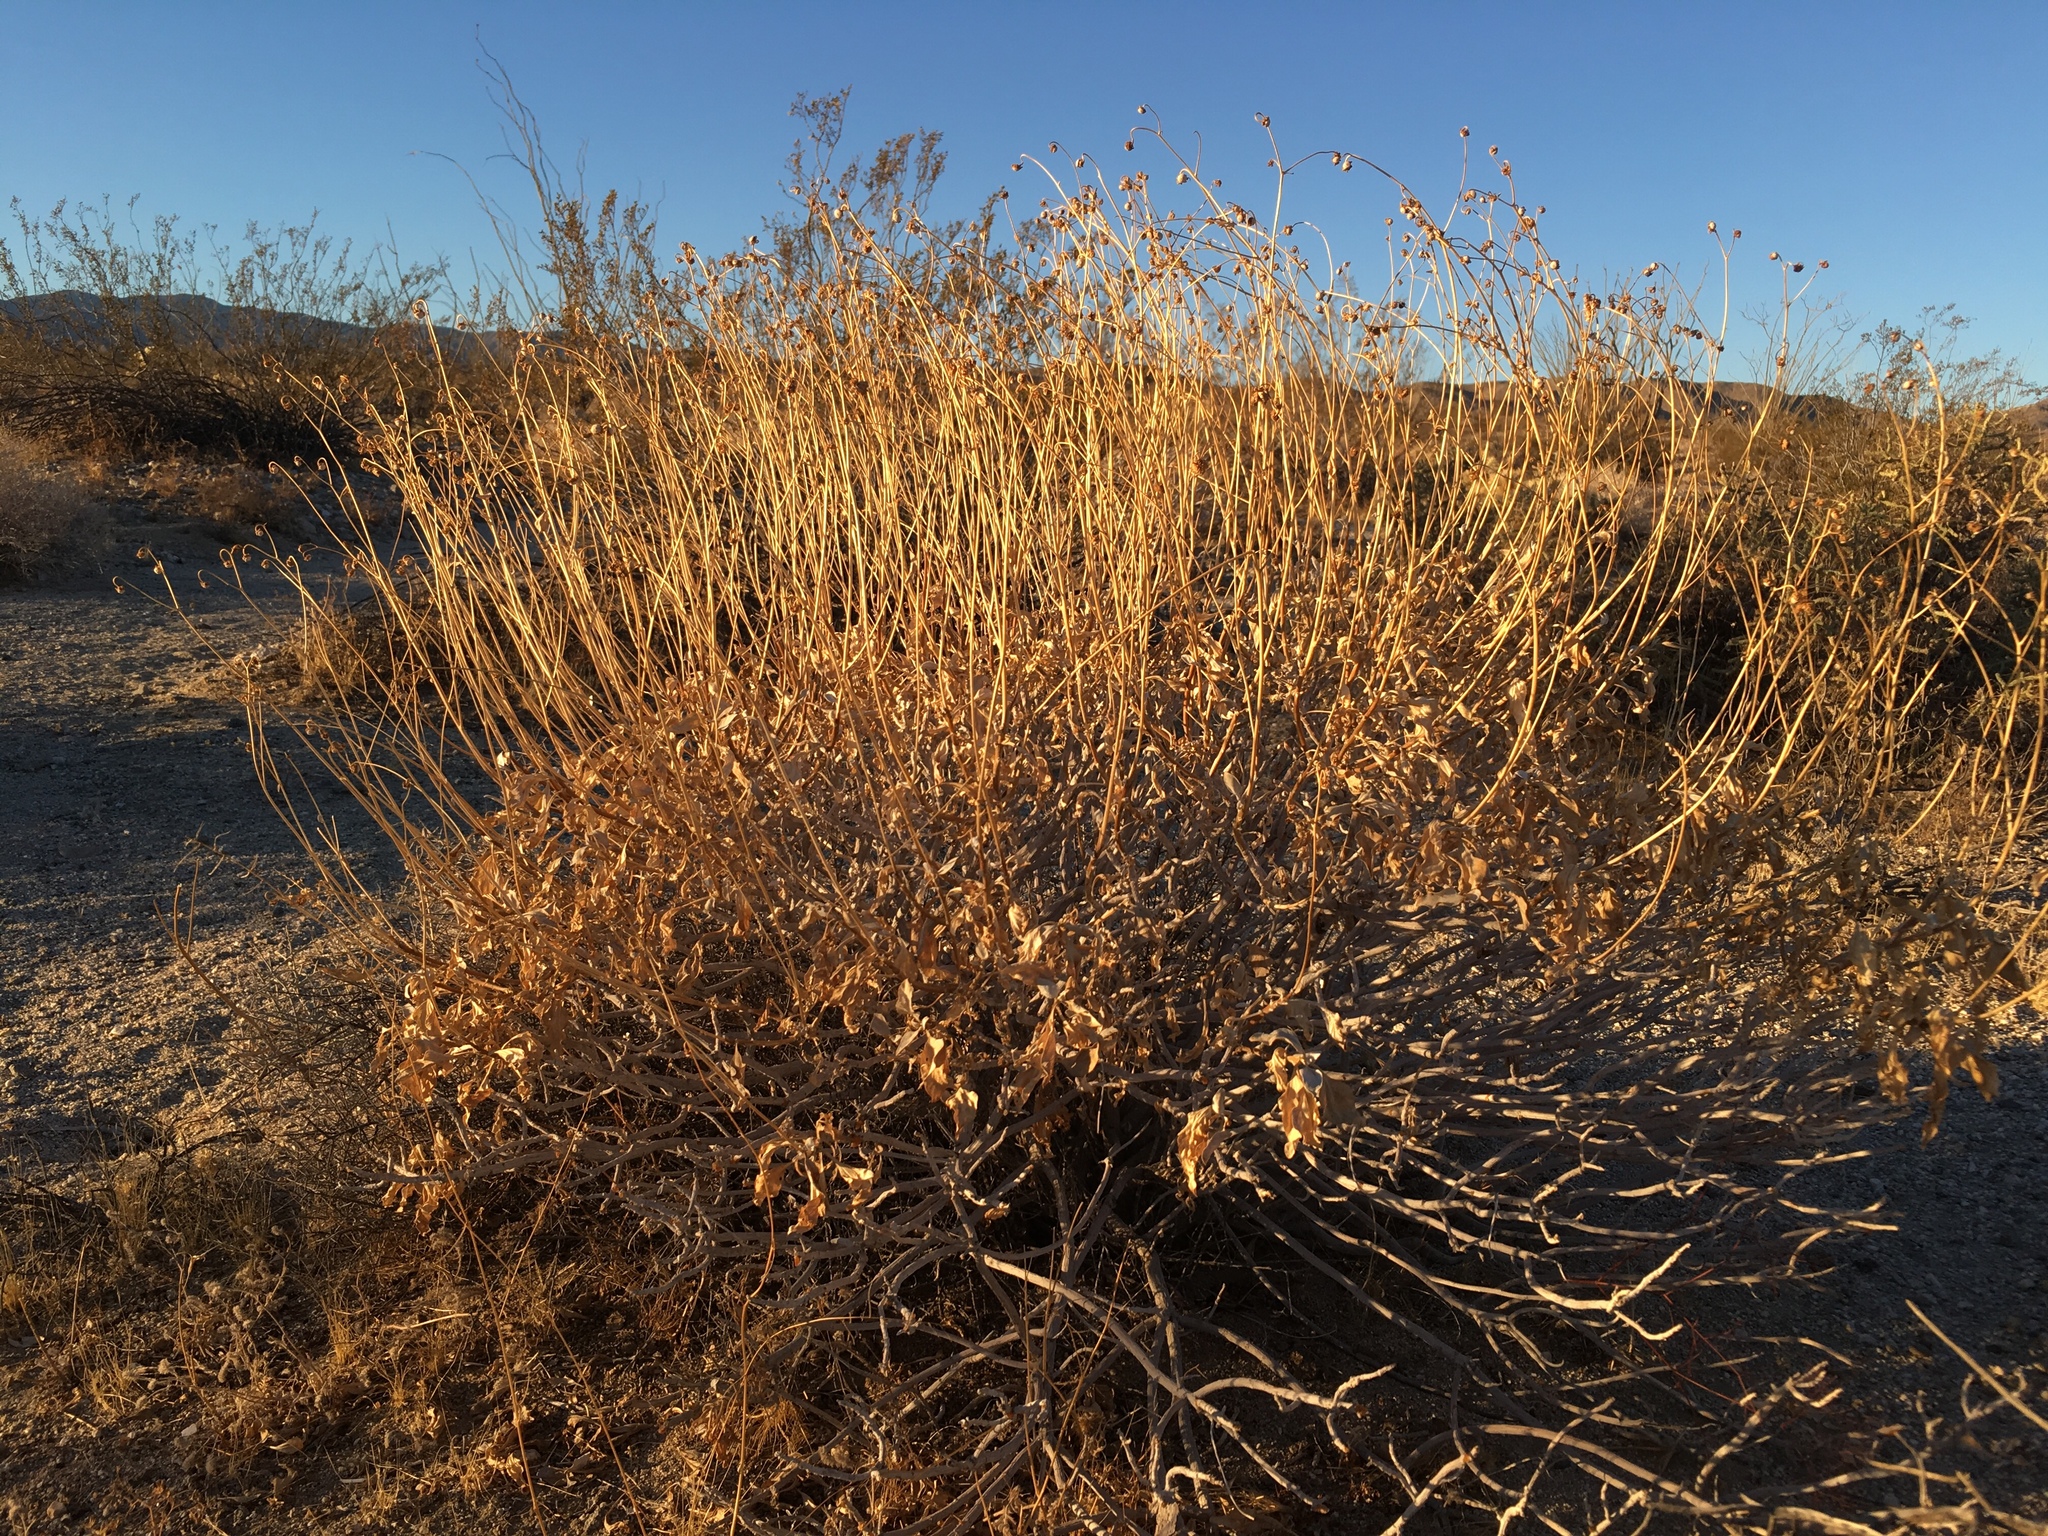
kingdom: Plantae
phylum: Tracheophyta
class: Magnoliopsida
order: Asterales
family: Asteraceae
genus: Encelia
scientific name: Encelia farinosa
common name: Brittlebush
